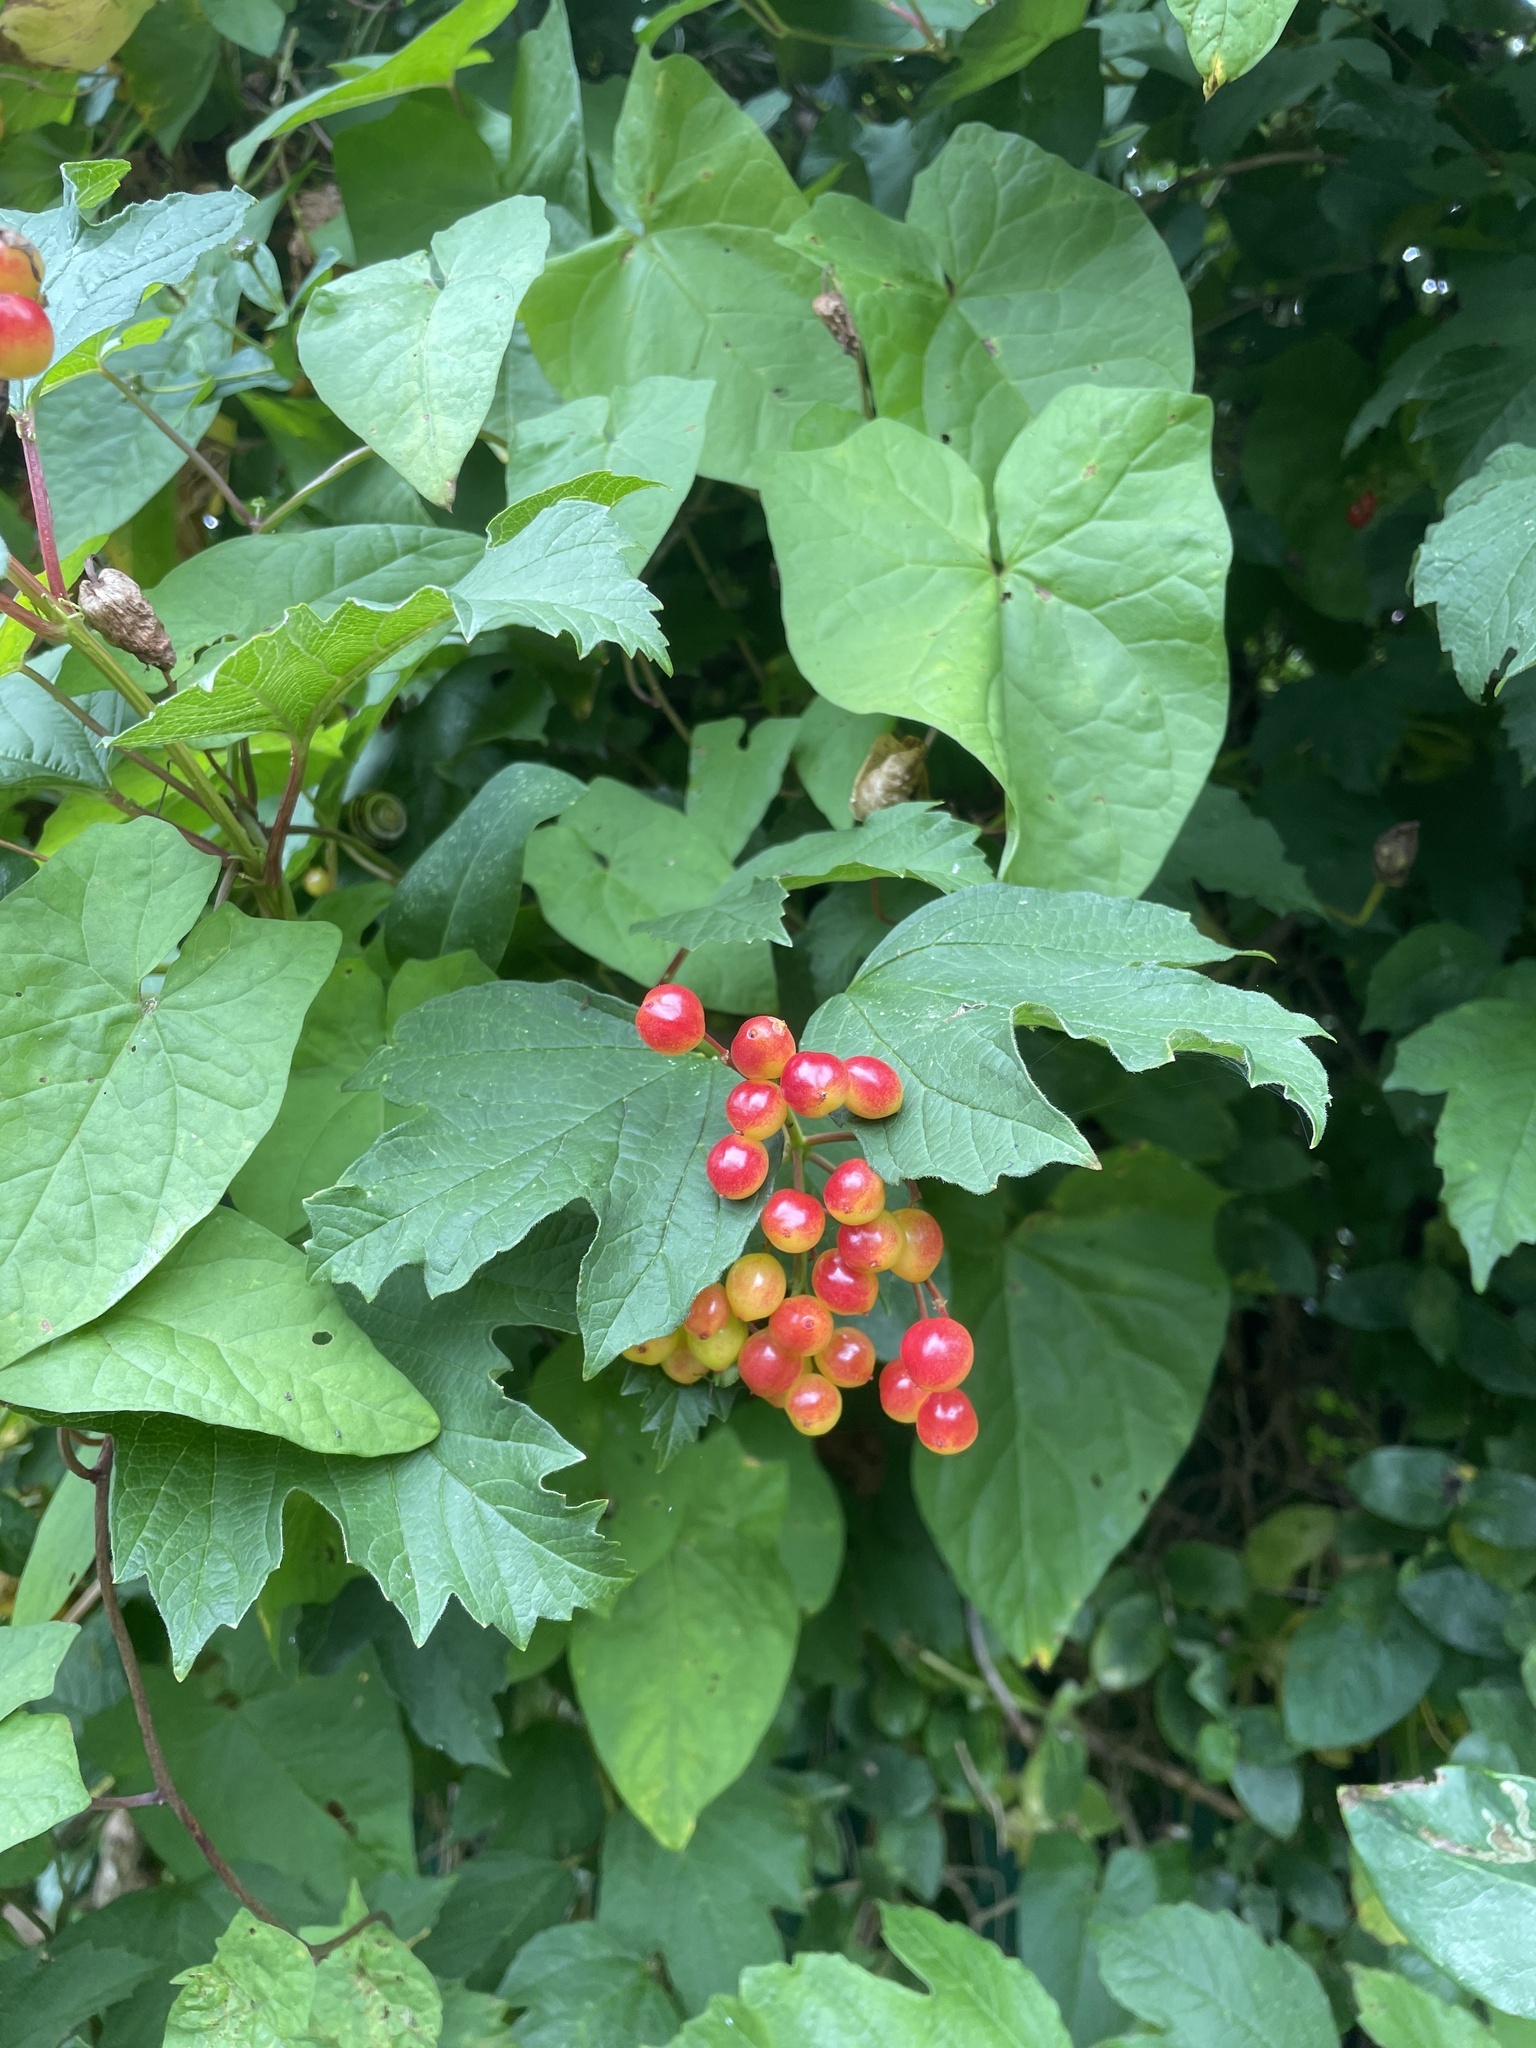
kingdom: Plantae
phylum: Tracheophyta
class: Magnoliopsida
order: Dipsacales
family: Viburnaceae
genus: Viburnum
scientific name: Viburnum opulus
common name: Guelder-rose
